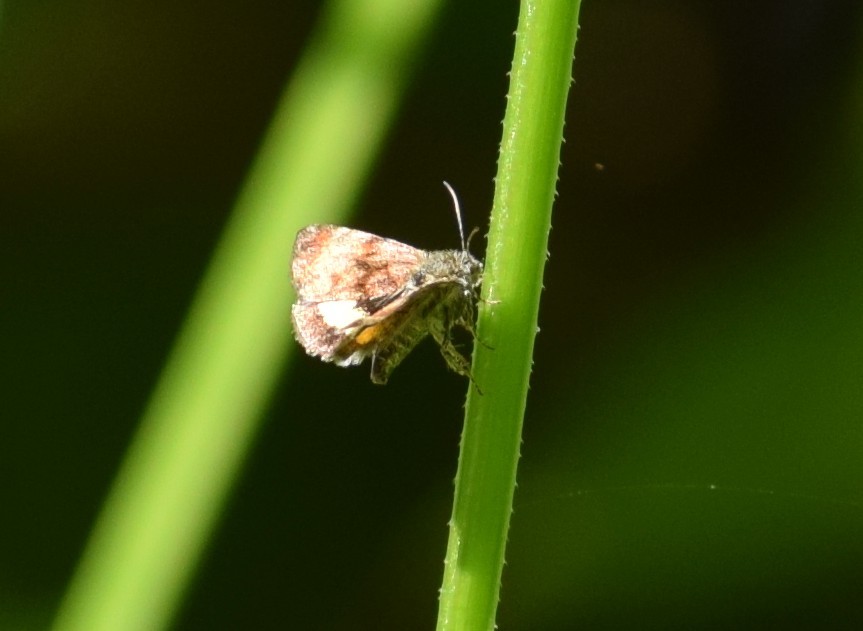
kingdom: Animalia
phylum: Arthropoda
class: Insecta
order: Lepidoptera
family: Noctuidae
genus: Panemeria
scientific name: Panemeria tenebrata
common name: Small yellow underwing
